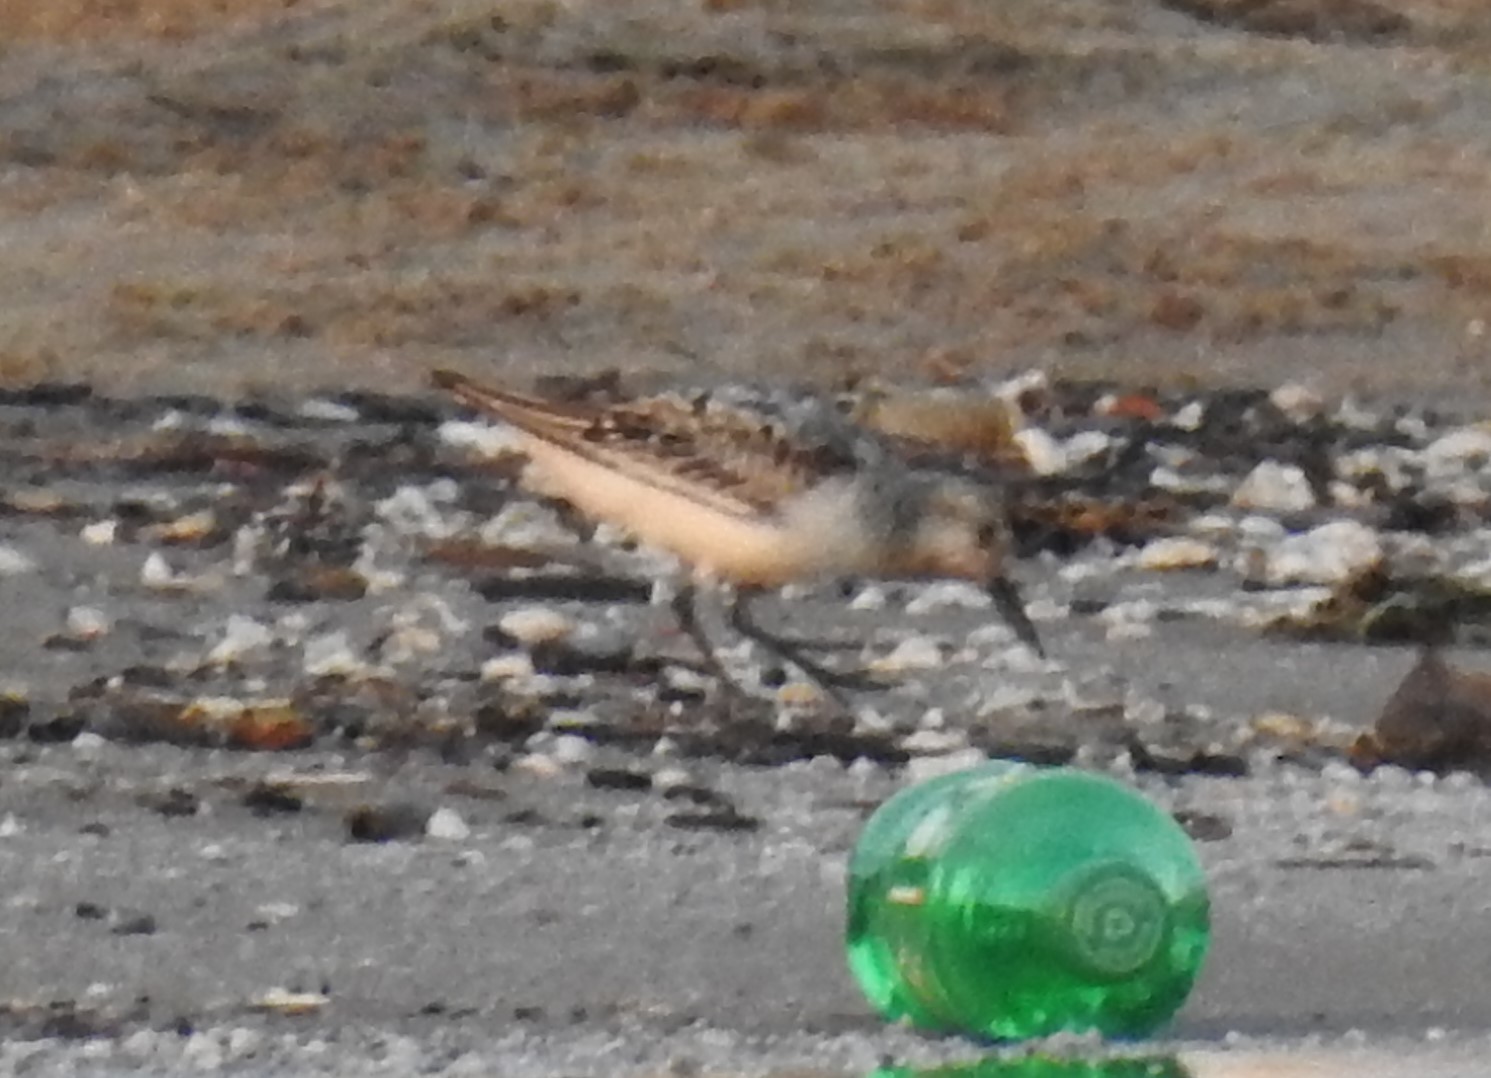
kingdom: Animalia
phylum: Chordata
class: Aves
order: Charadriiformes
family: Scolopacidae
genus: Calidris
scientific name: Calidris alba
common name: Sanderling
